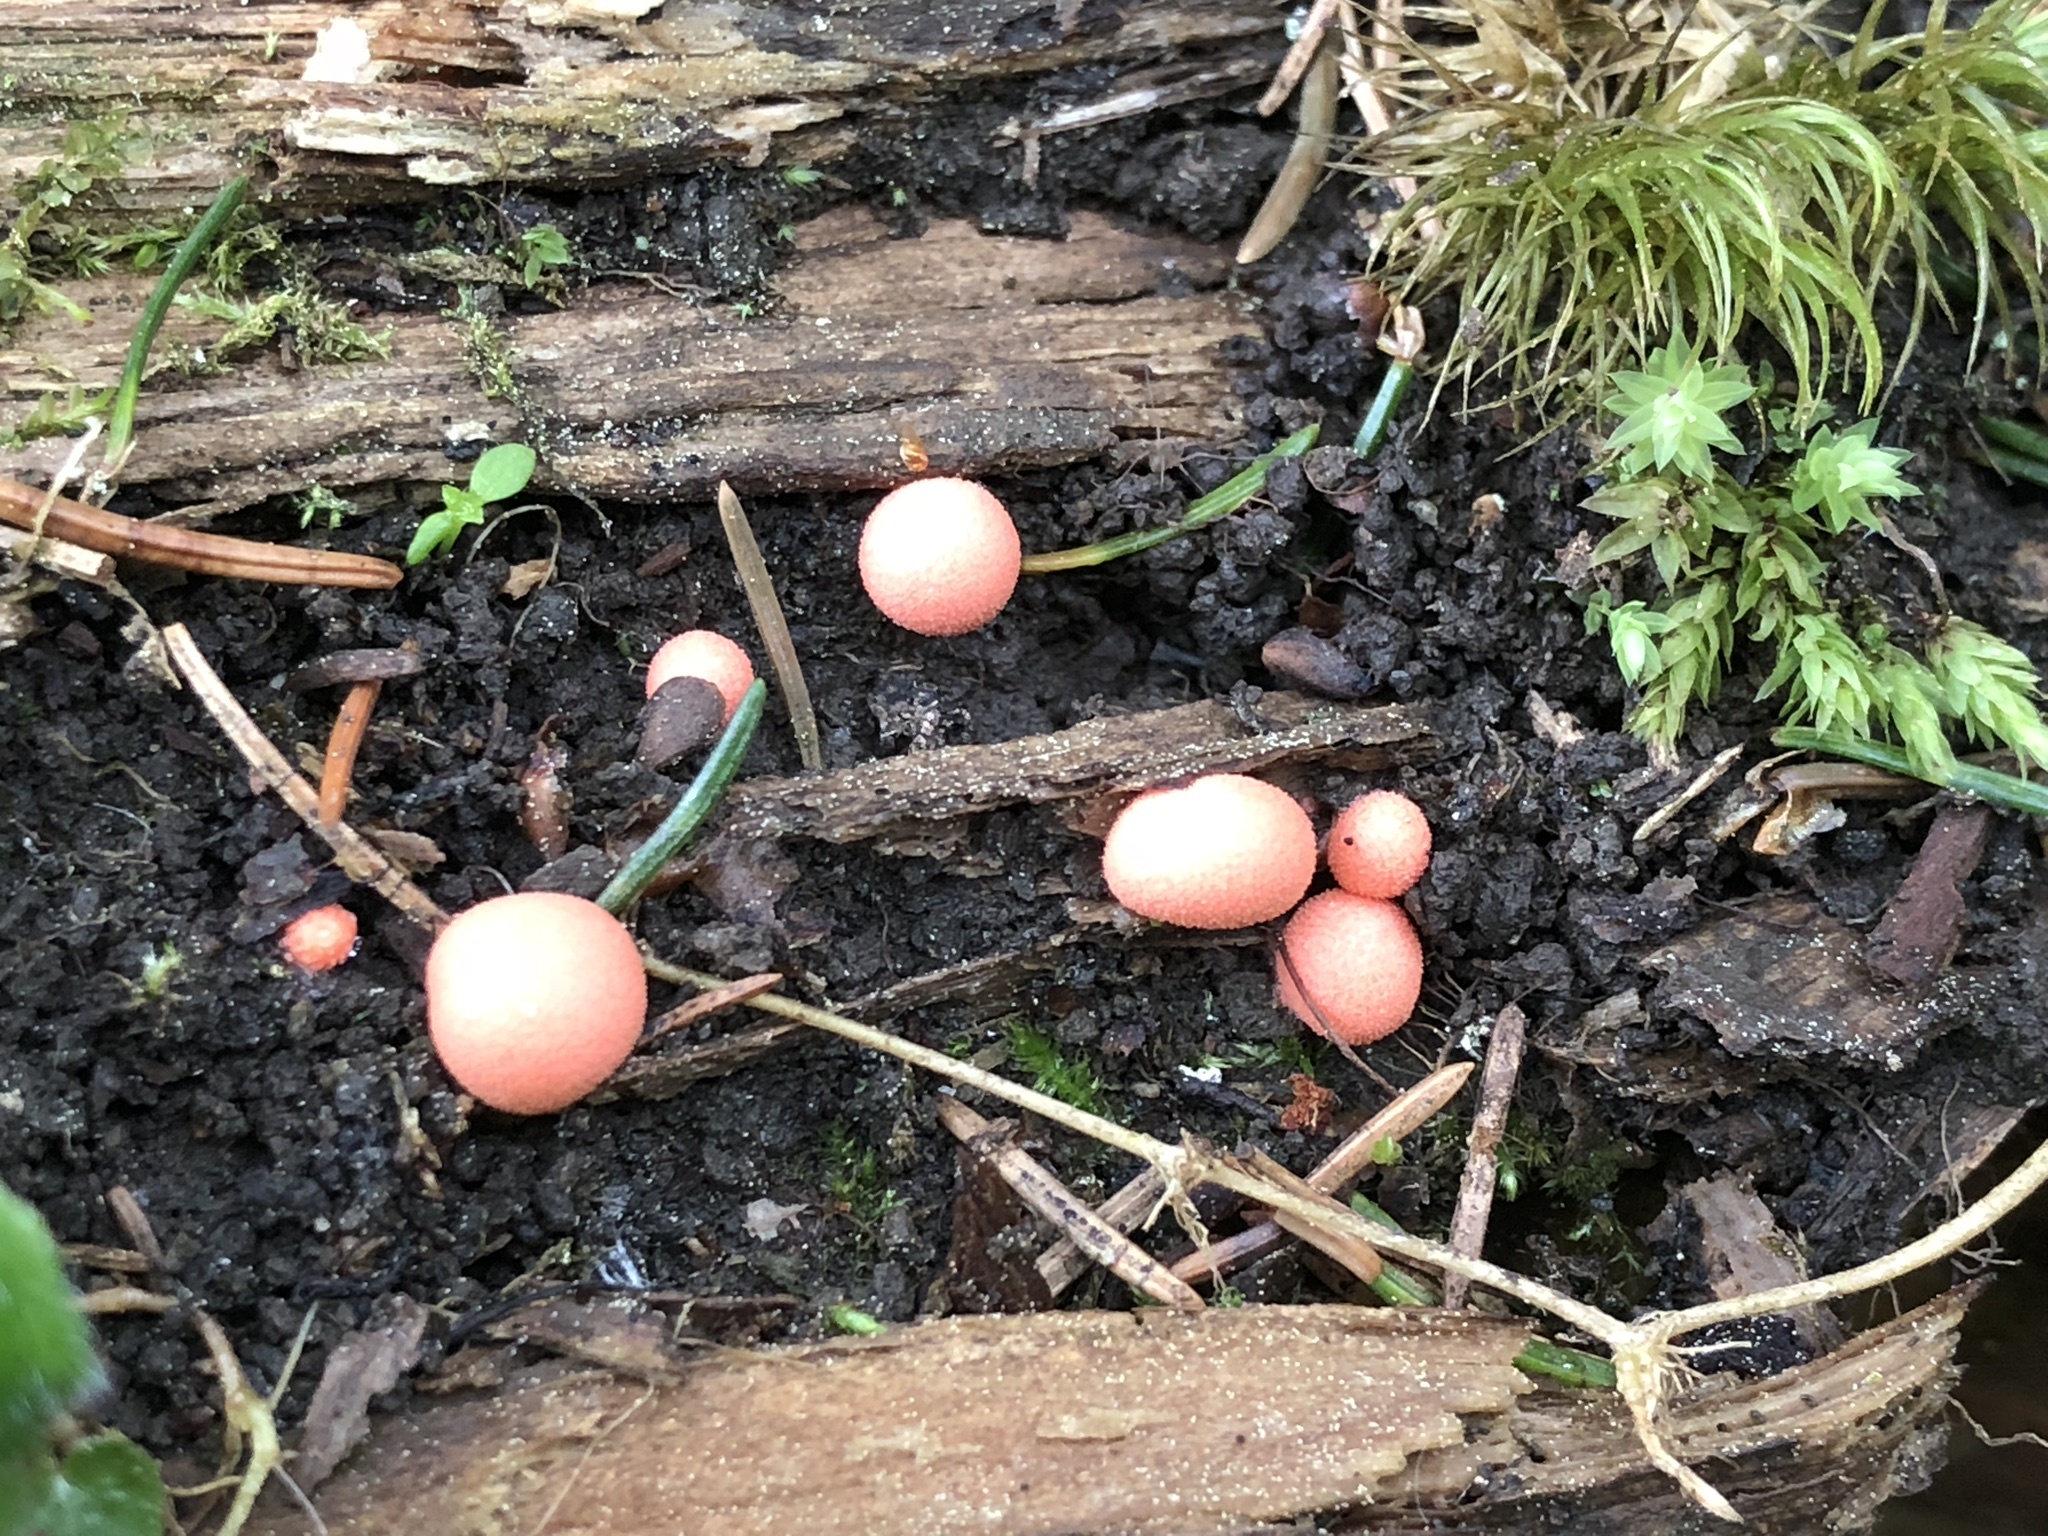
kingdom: Protozoa
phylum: Mycetozoa
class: Myxomycetes
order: Cribrariales
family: Tubiferaceae
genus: Lycogala
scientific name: Lycogala epidendrum
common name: Wolf's milk
